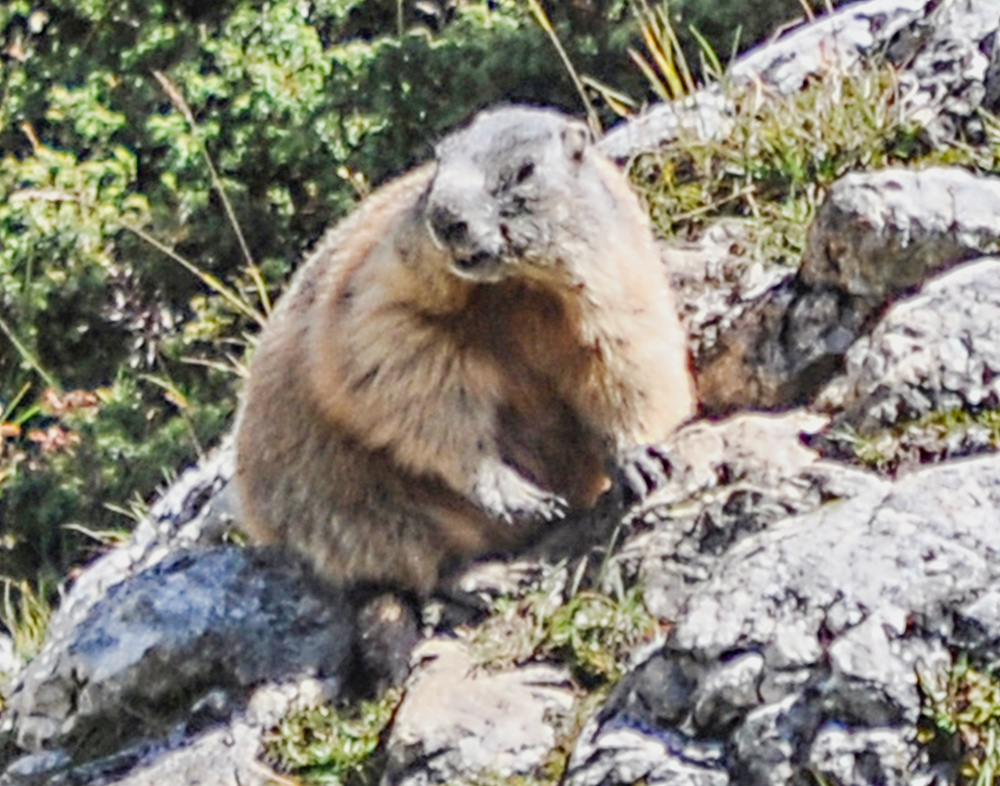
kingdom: Animalia
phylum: Chordata
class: Mammalia
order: Rodentia
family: Sciuridae
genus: Marmota
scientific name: Marmota marmota
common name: Alpine marmot
